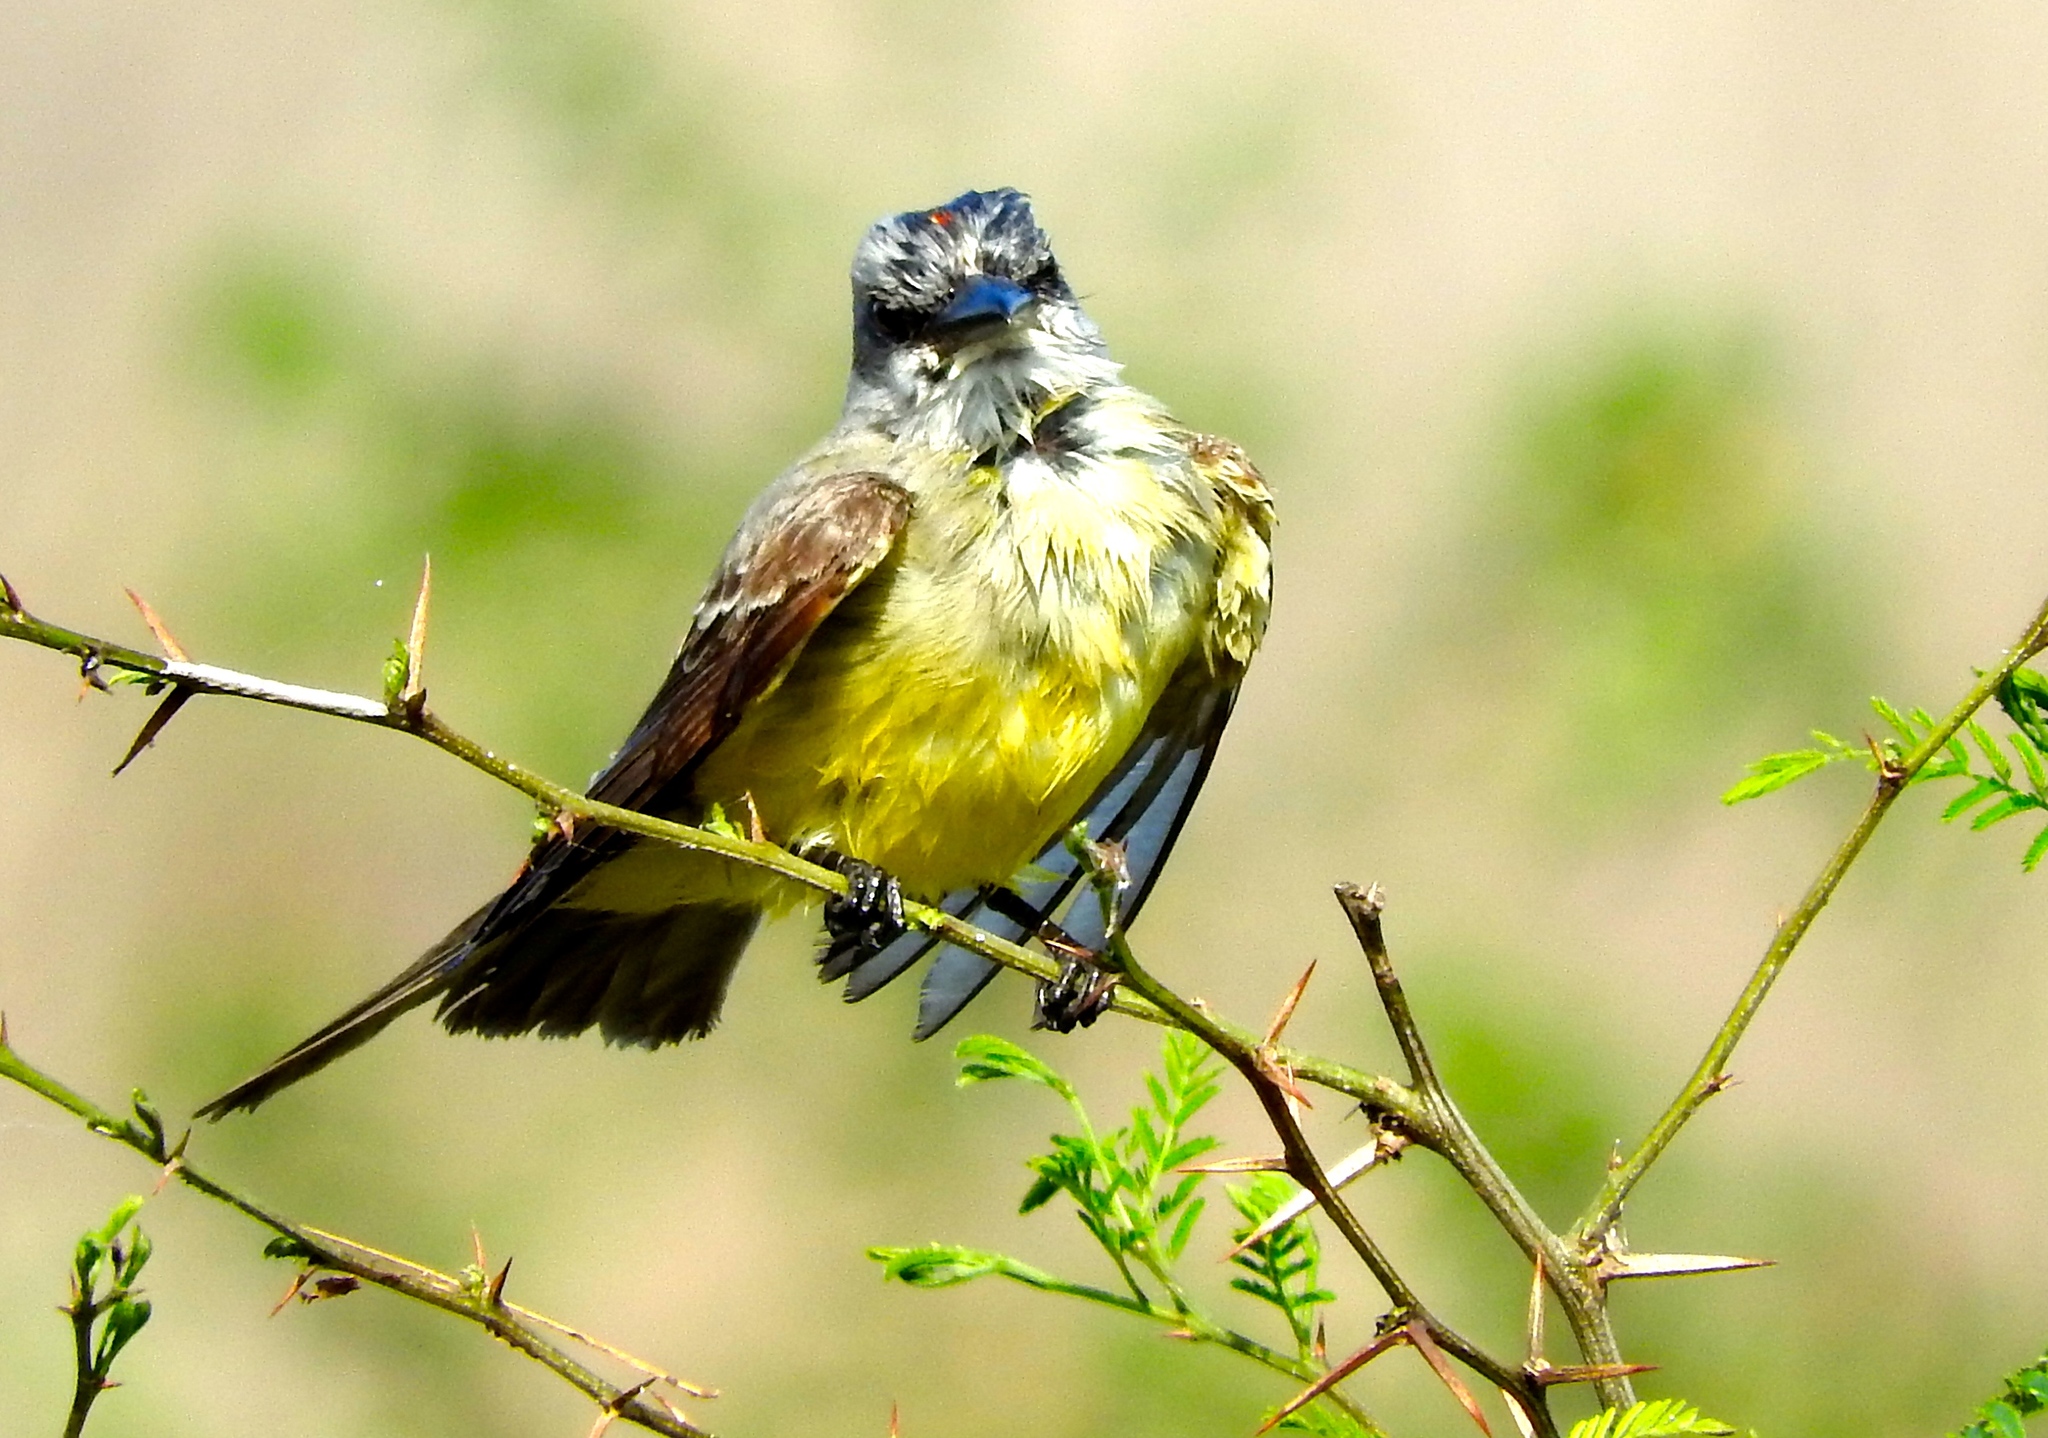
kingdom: Animalia
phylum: Chordata
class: Aves
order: Passeriformes
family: Tyrannidae
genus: Tyrannus
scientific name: Tyrannus melancholicus
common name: Tropical kingbird
